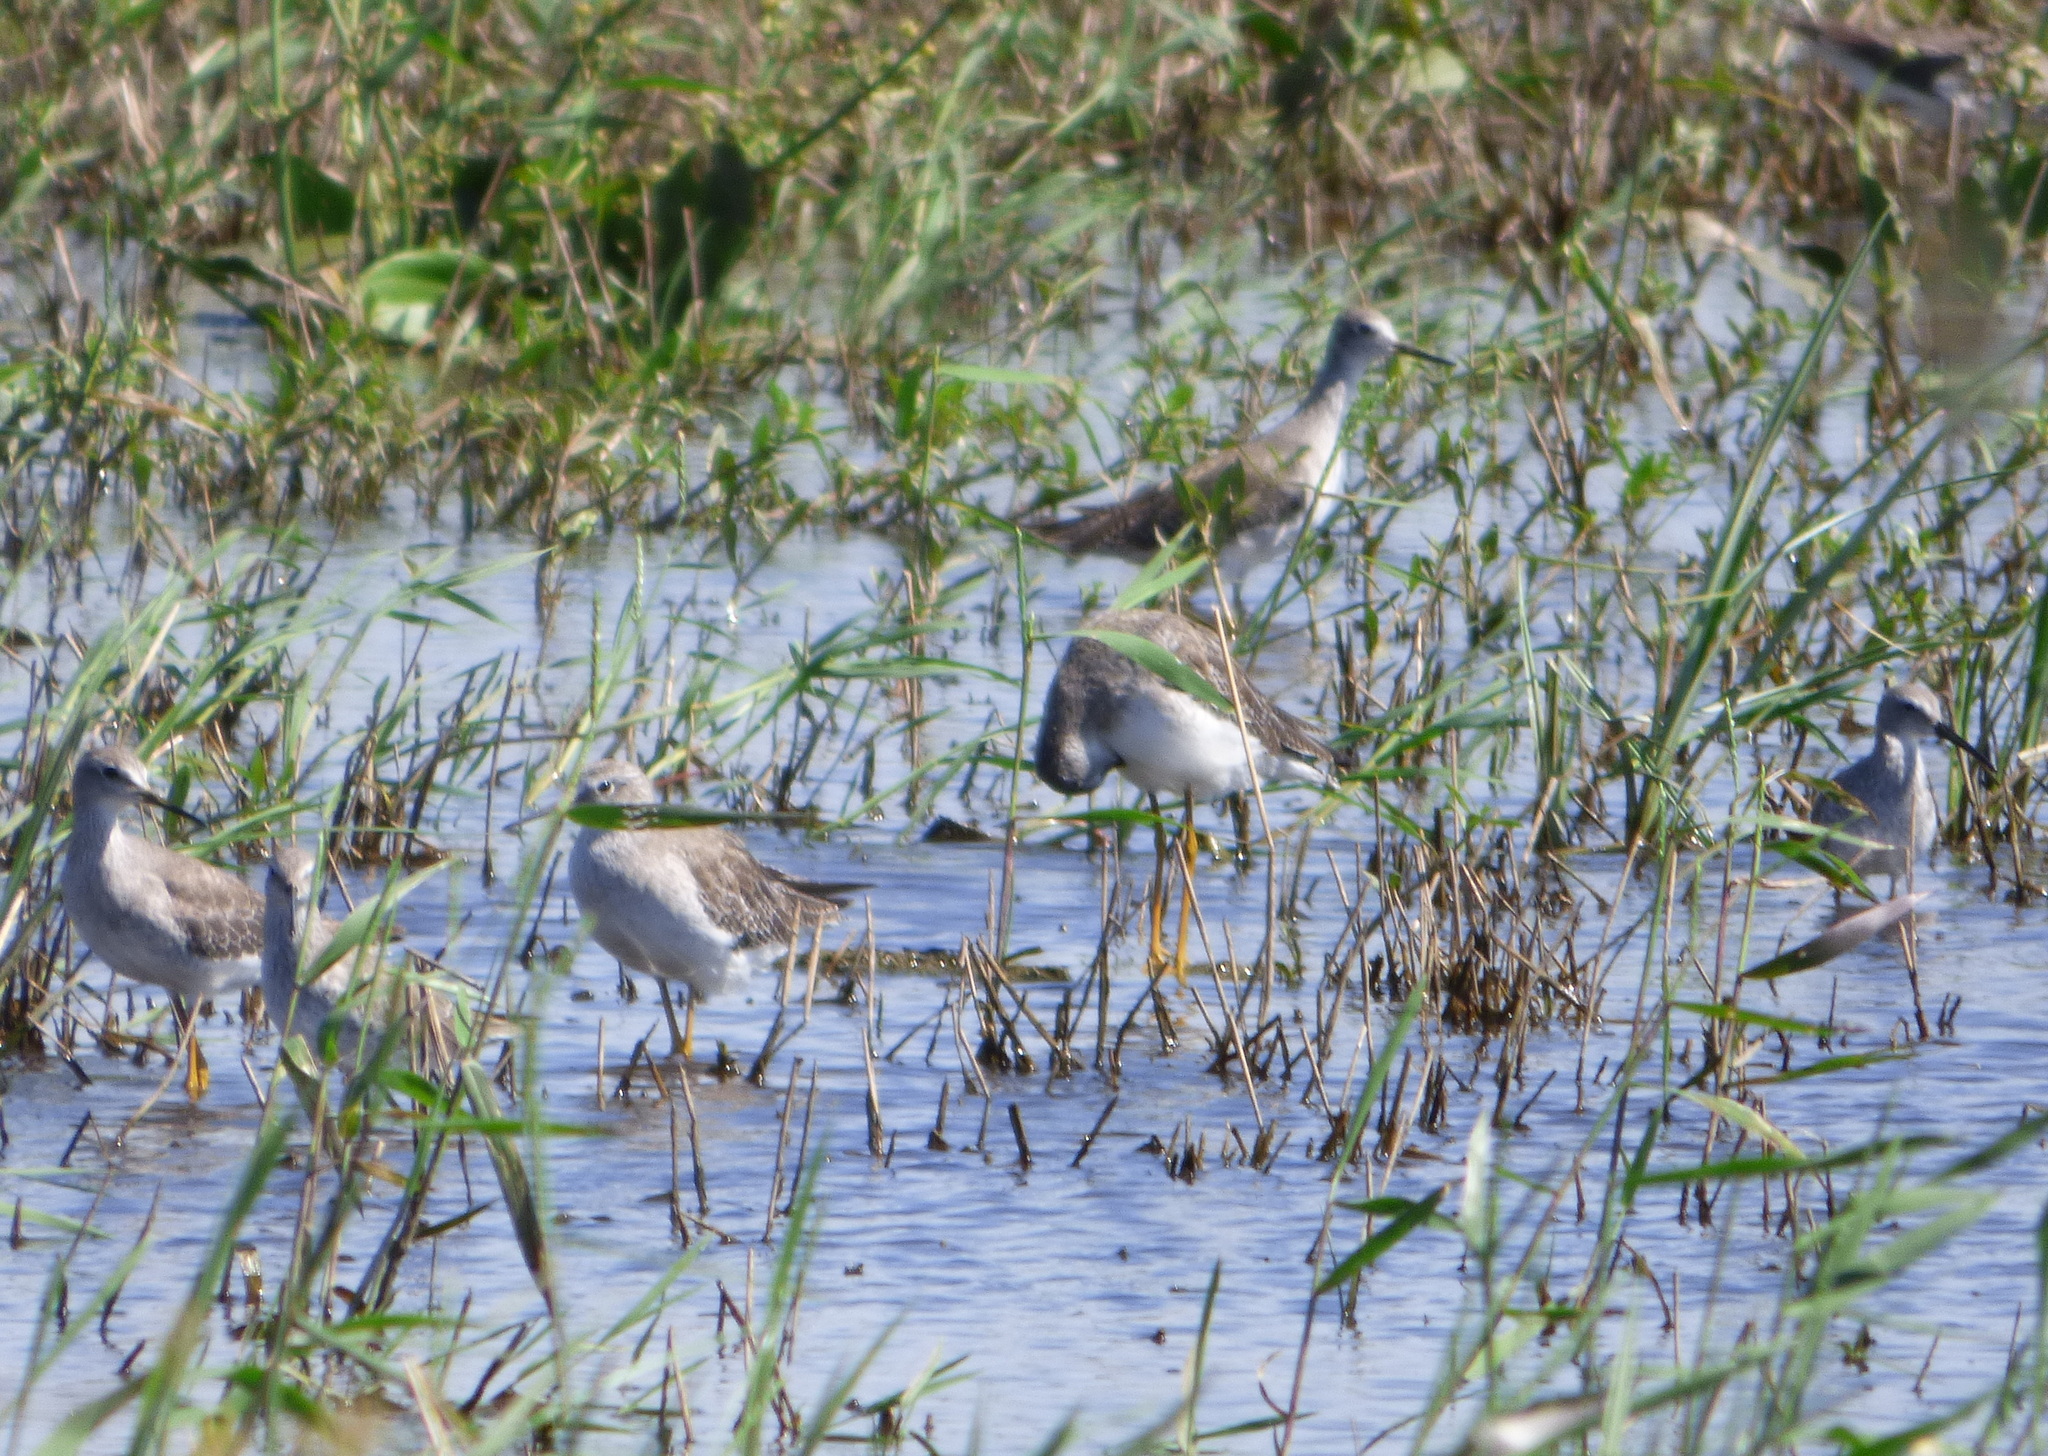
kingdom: Animalia
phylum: Chordata
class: Aves
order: Charadriiformes
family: Scolopacidae
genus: Tringa
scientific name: Tringa flavipes
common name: Lesser yellowlegs
